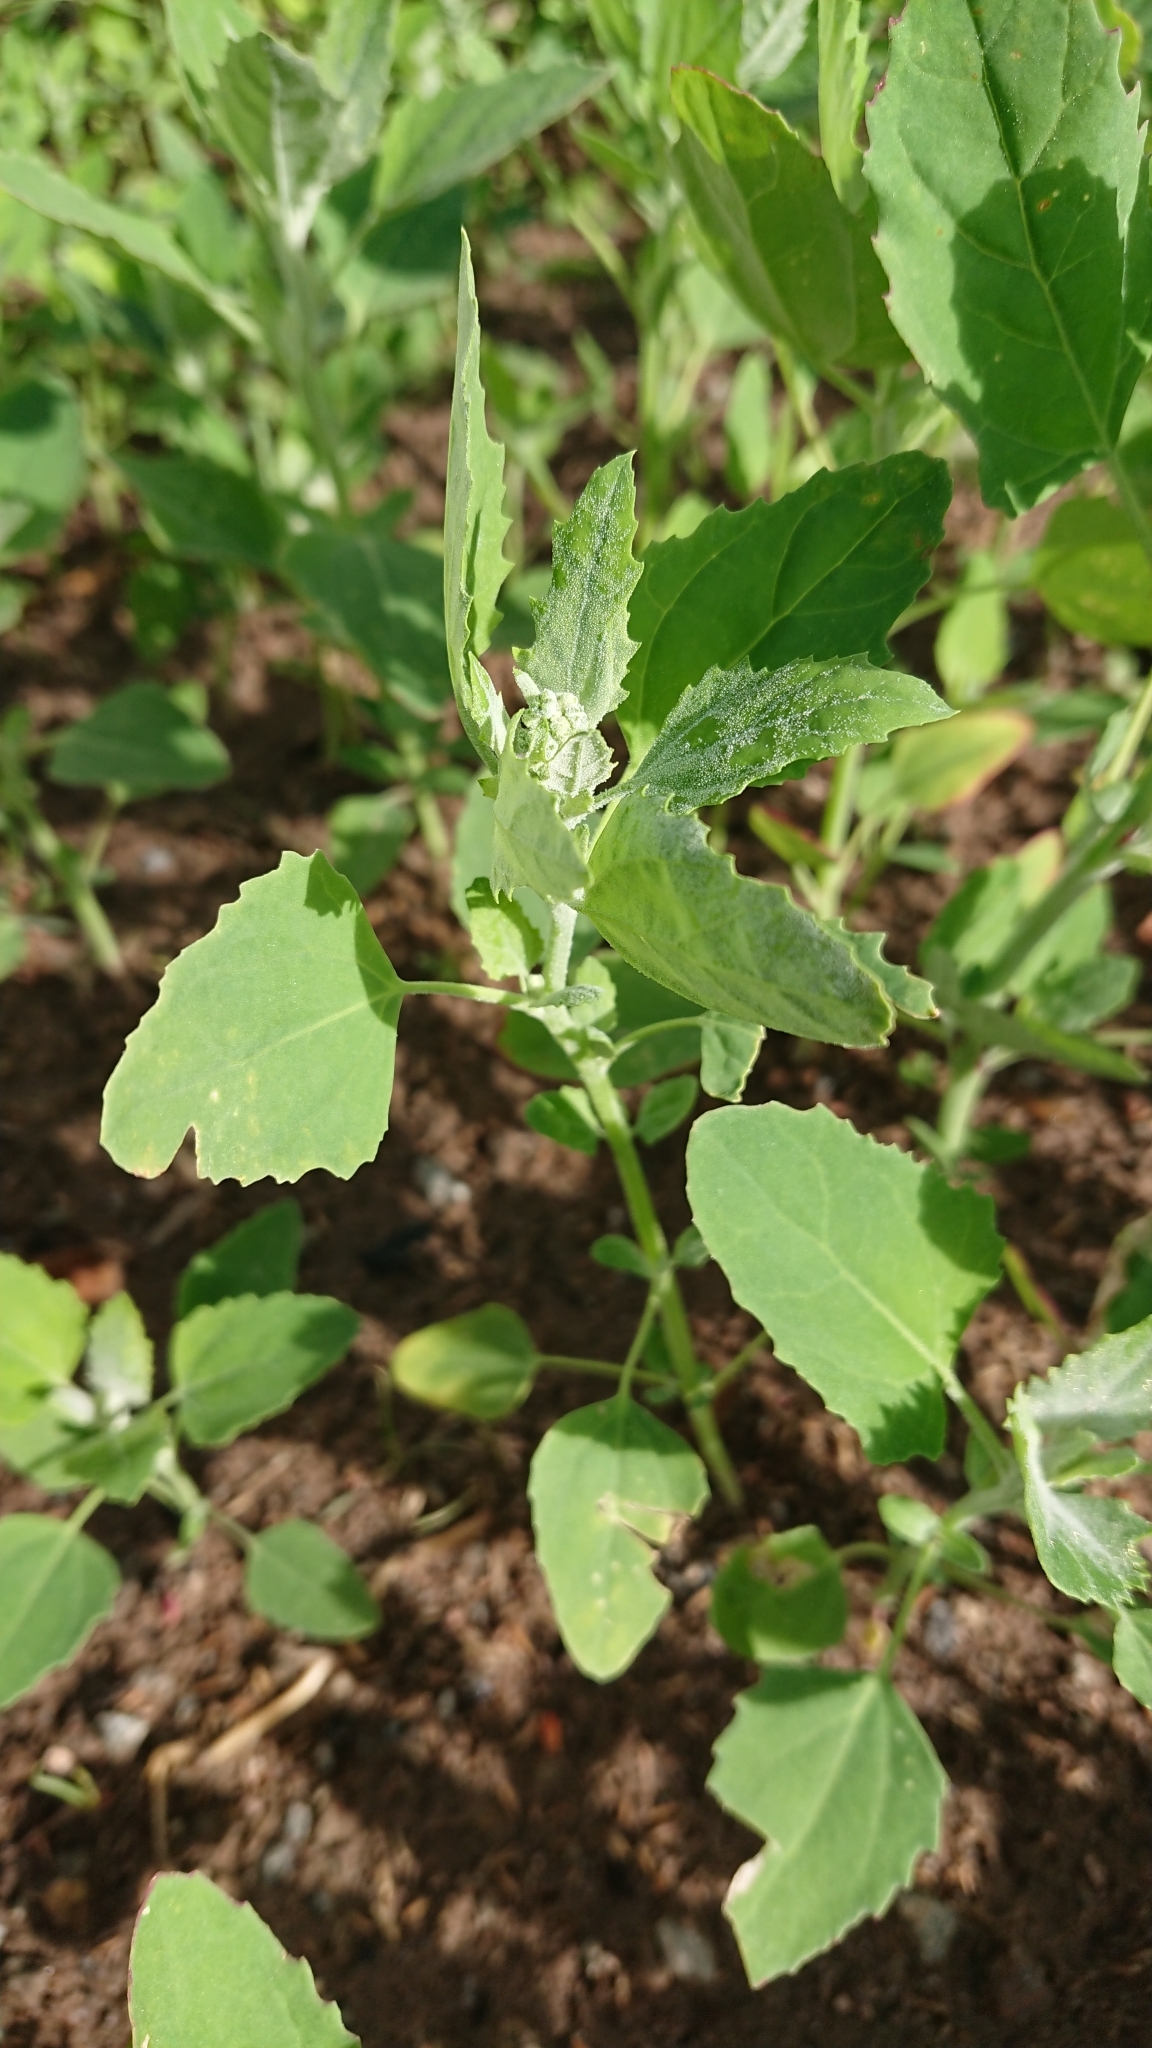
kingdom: Plantae
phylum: Tracheophyta
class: Magnoliopsida
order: Caryophyllales
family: Amaranthaceae
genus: Chenopodium
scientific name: Chenopodium album
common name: Fat-hen
